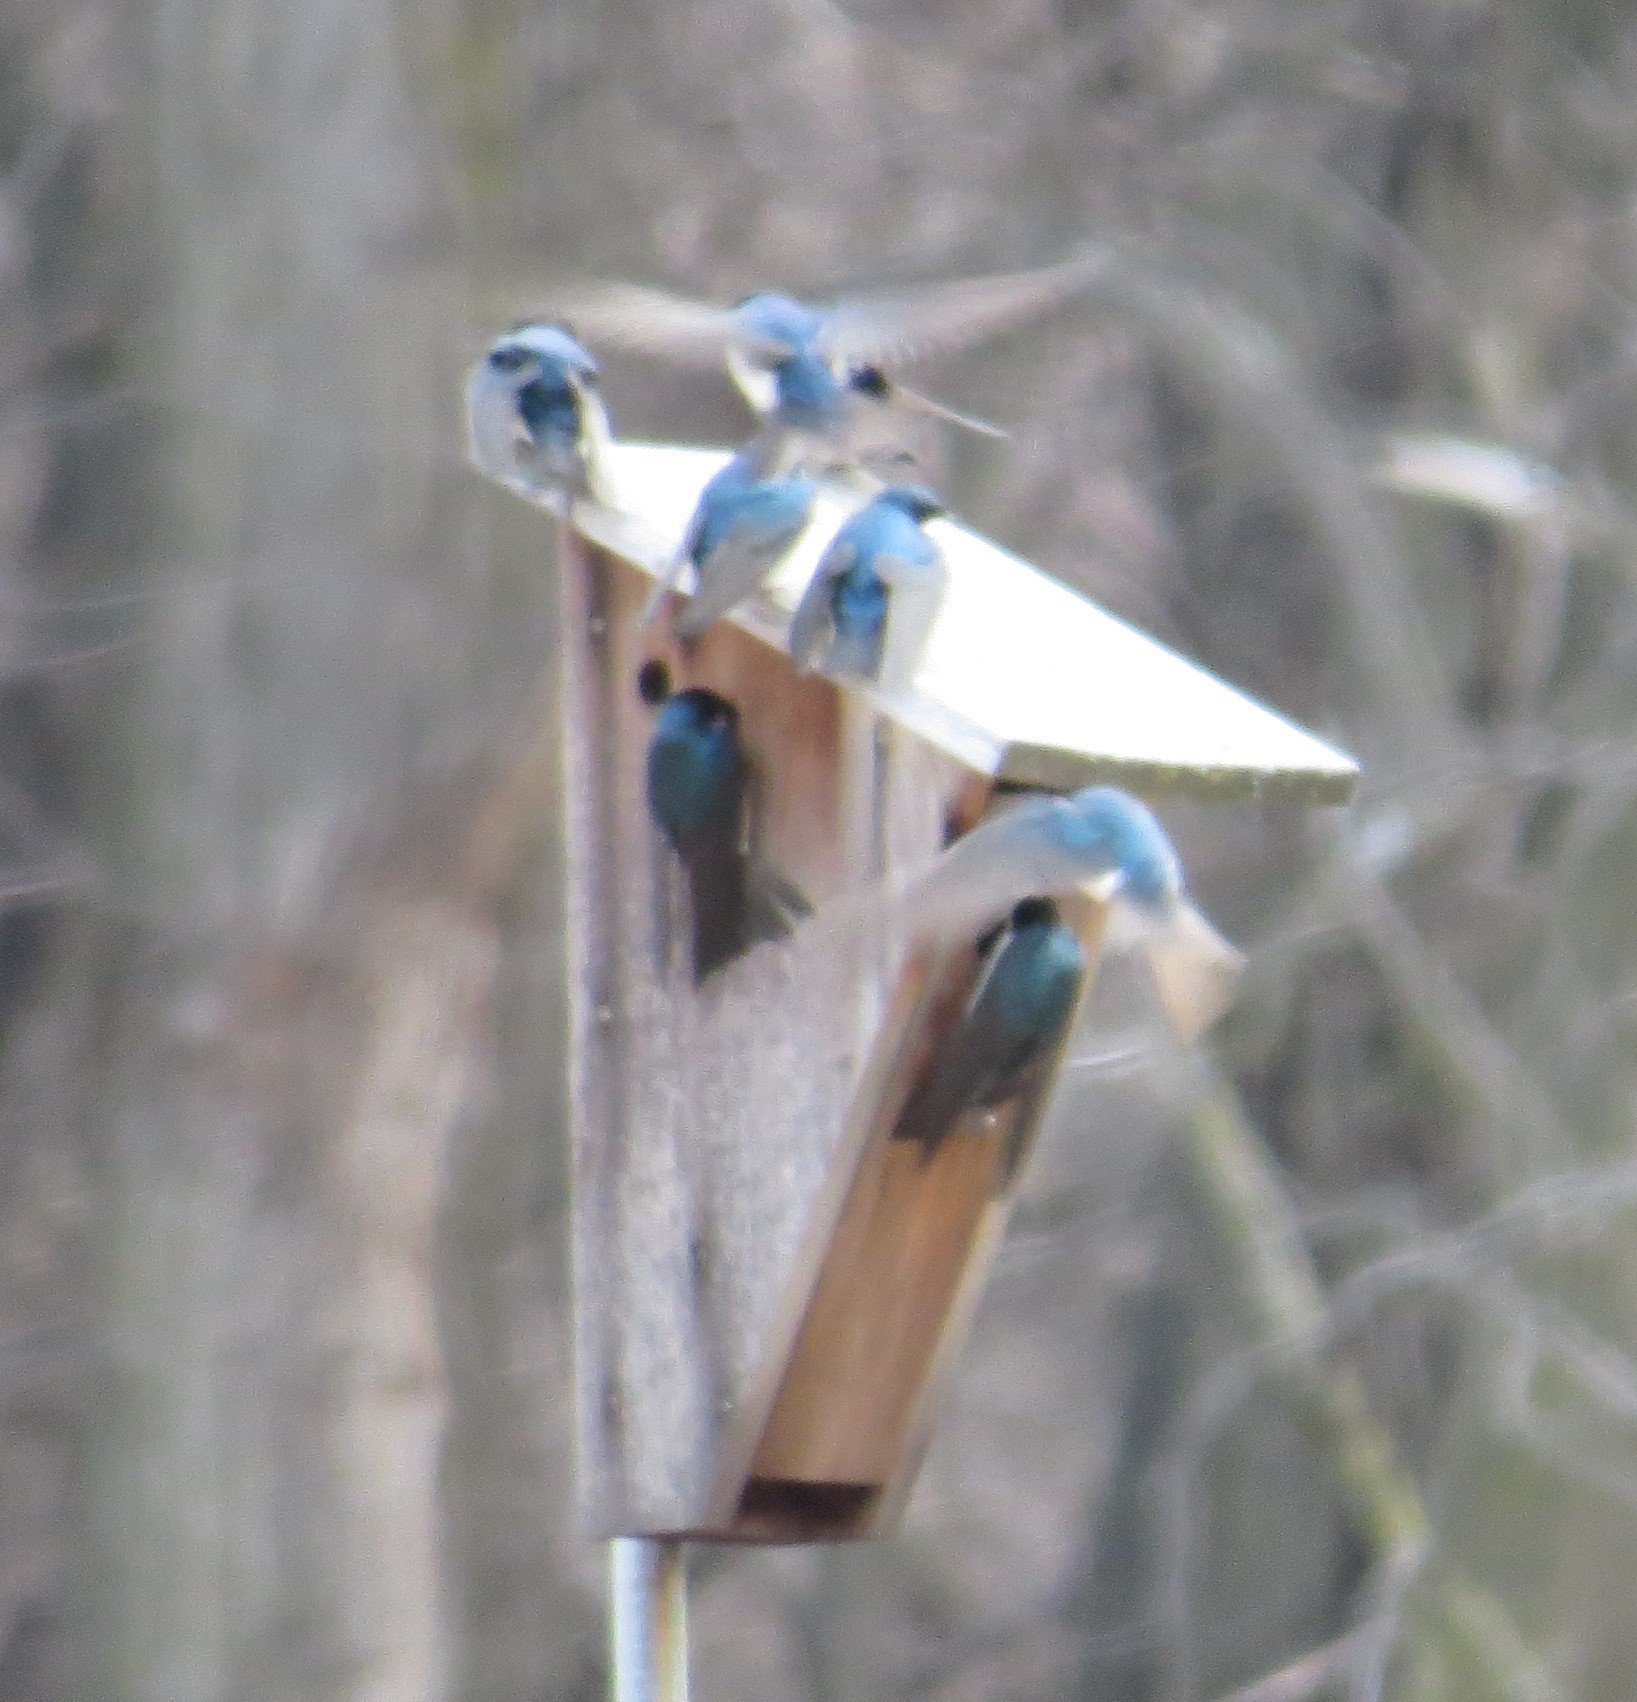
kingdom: Animalia
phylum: Chordata
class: Aves
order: Passeriformes
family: Hirundinidae
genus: Tachycineta
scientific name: Tachycineta bicolor
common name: Tree swallow
